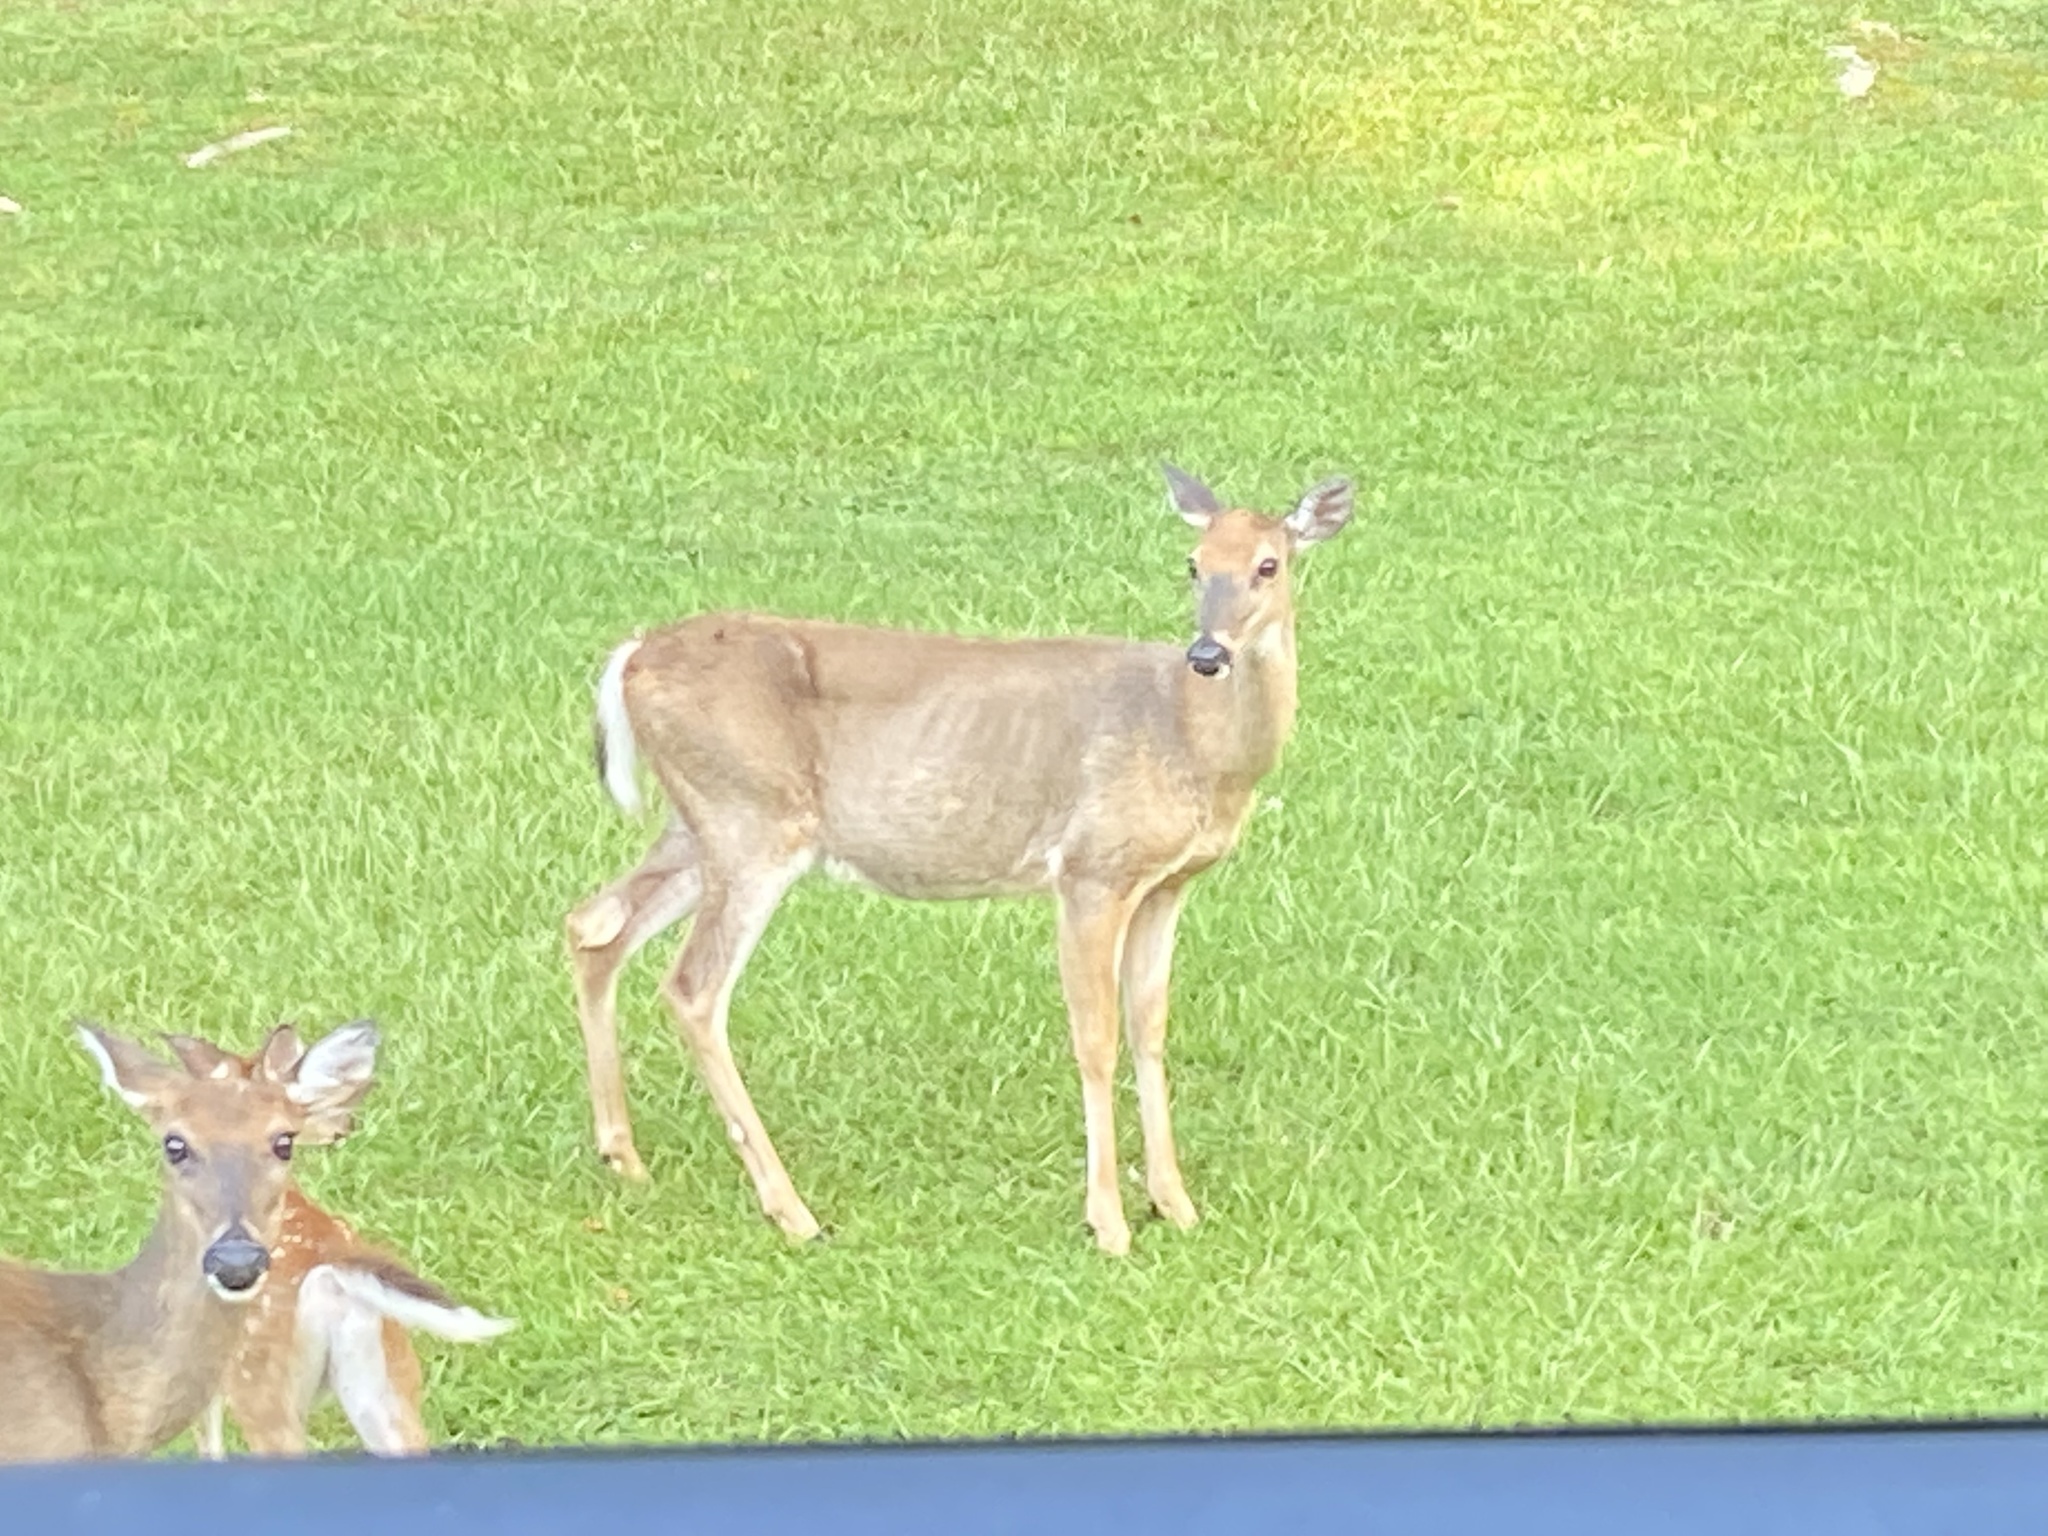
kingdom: Animalia
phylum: Chordata
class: Mammalia
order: Artiodactyla
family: Cervidae
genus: Odocoileus
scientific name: Odocoileus virginianus
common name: White-tailed deer
